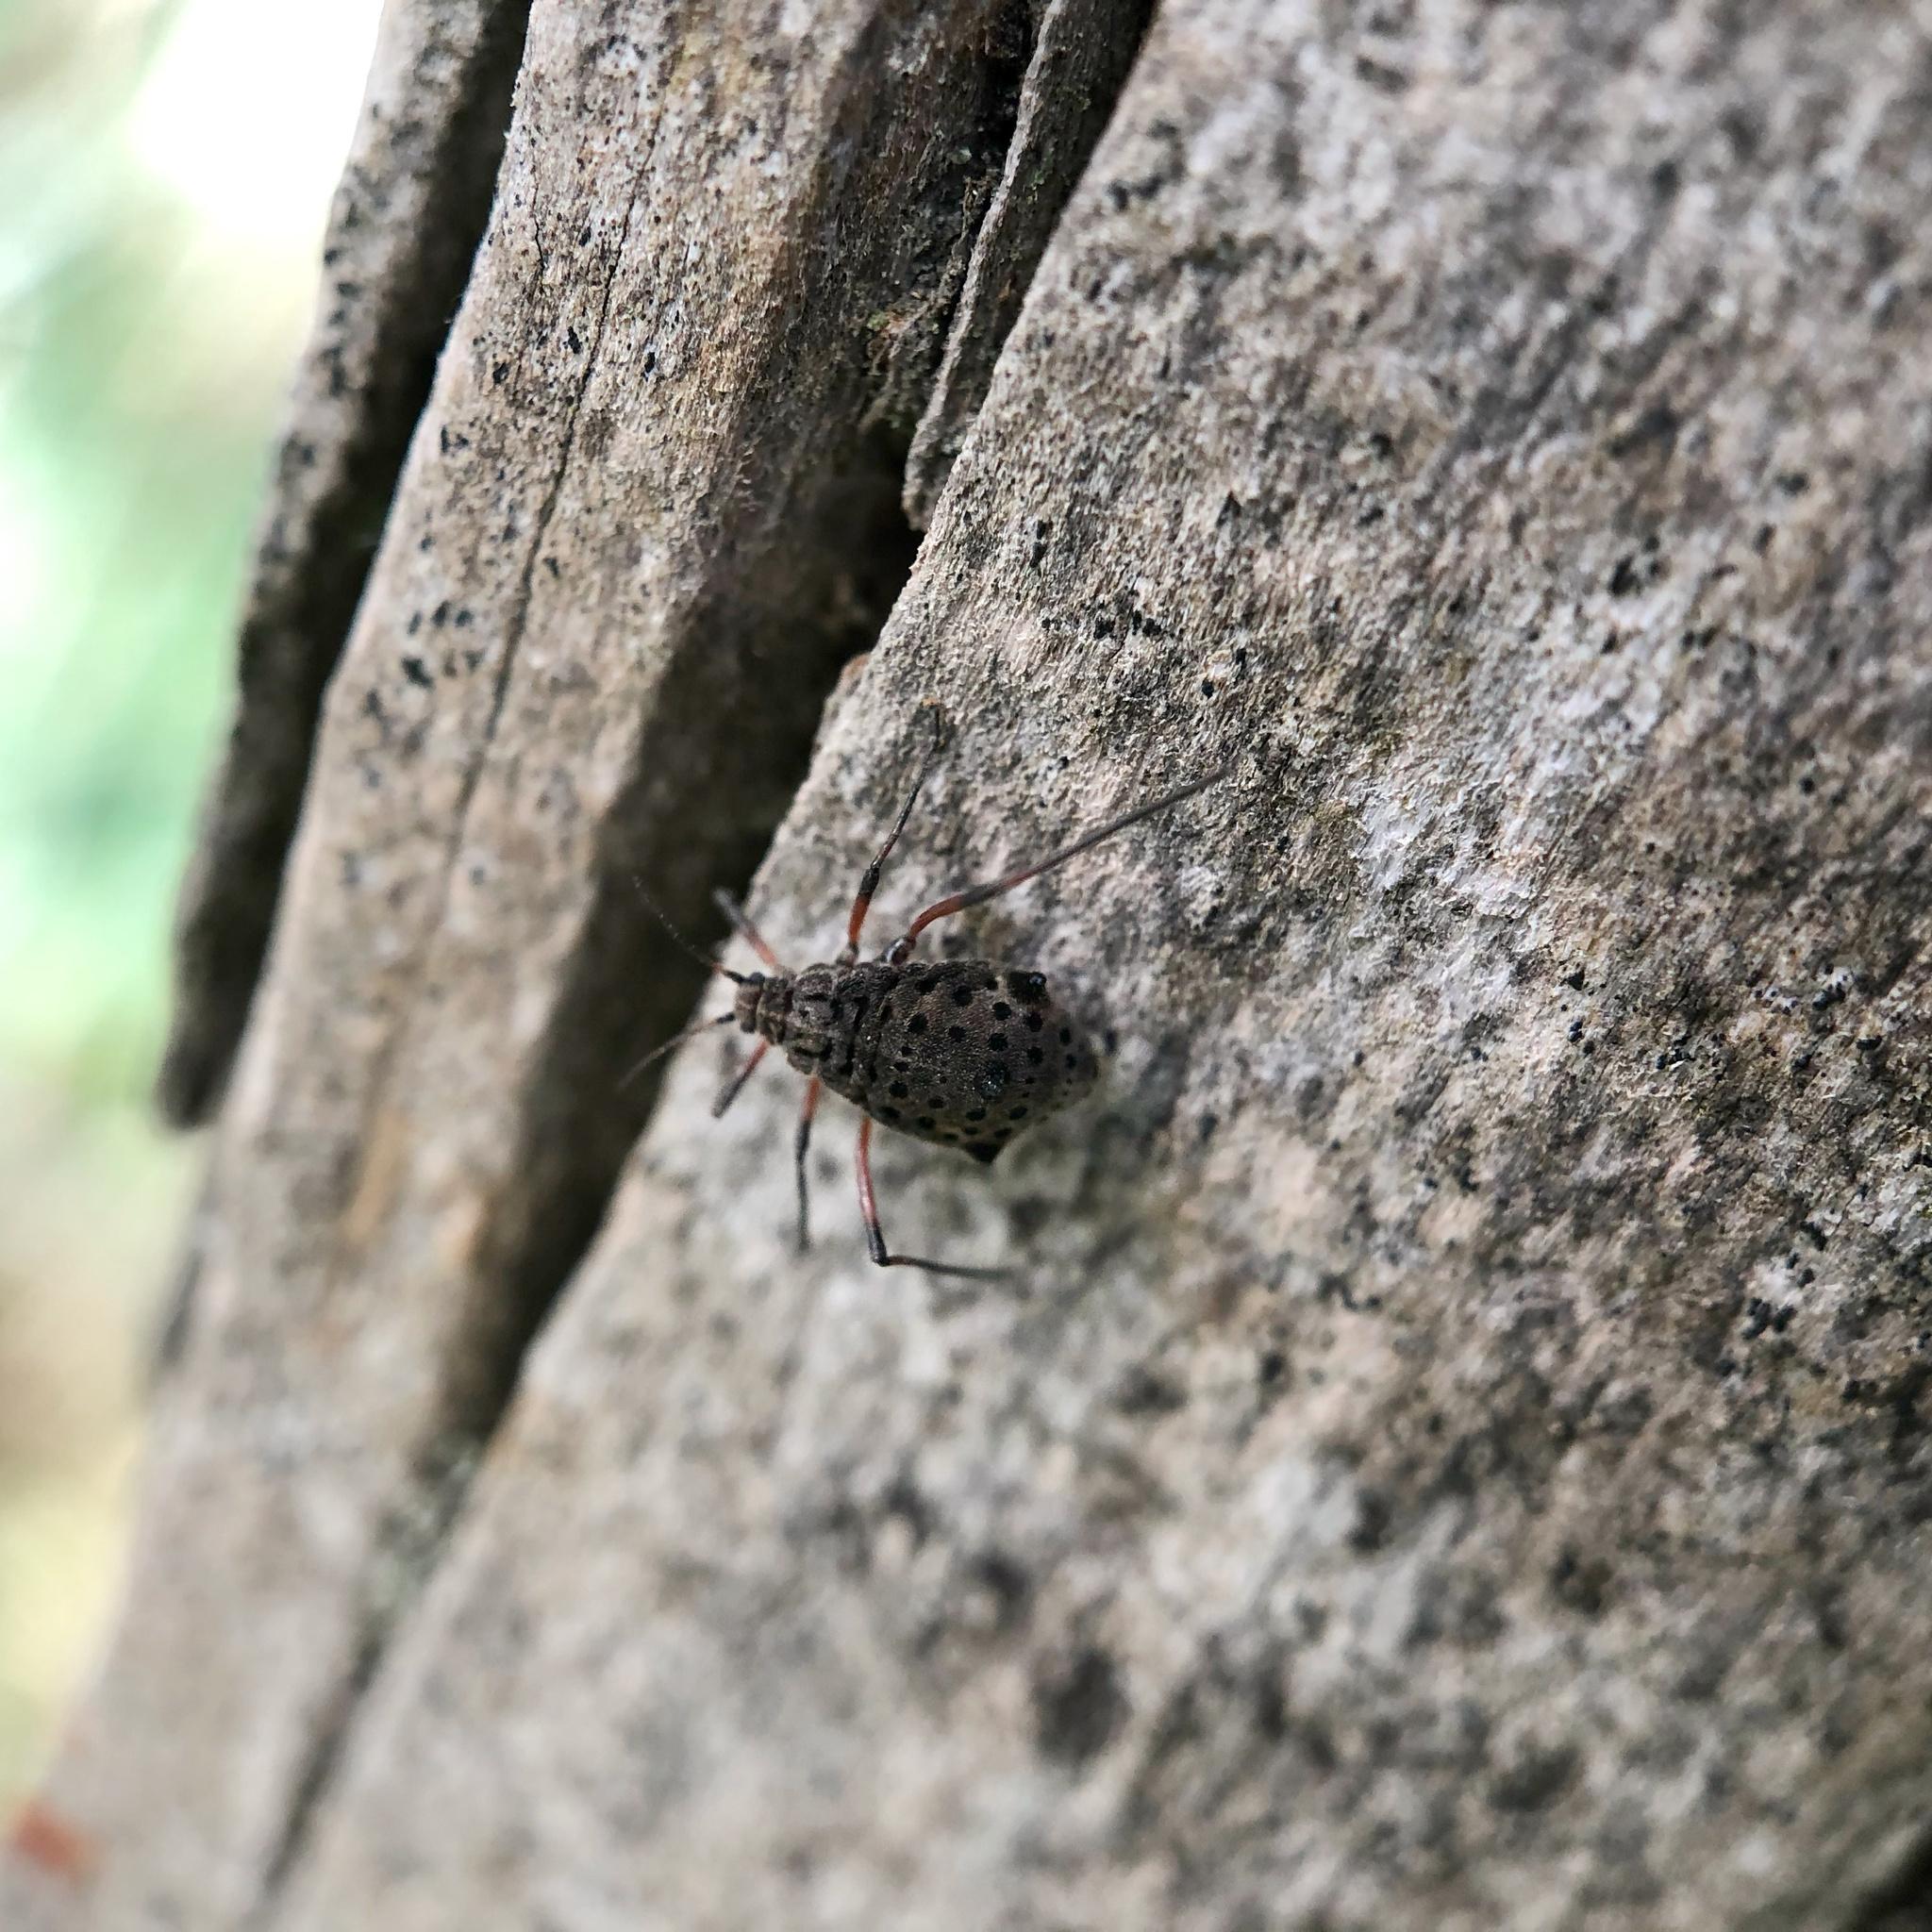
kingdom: Animalia
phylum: Arthropoda
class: Insecta
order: Hemiptera
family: Aphididae
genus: Tuberolachnus
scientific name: Tuberolachnus salignus
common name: Giant willow aphid
